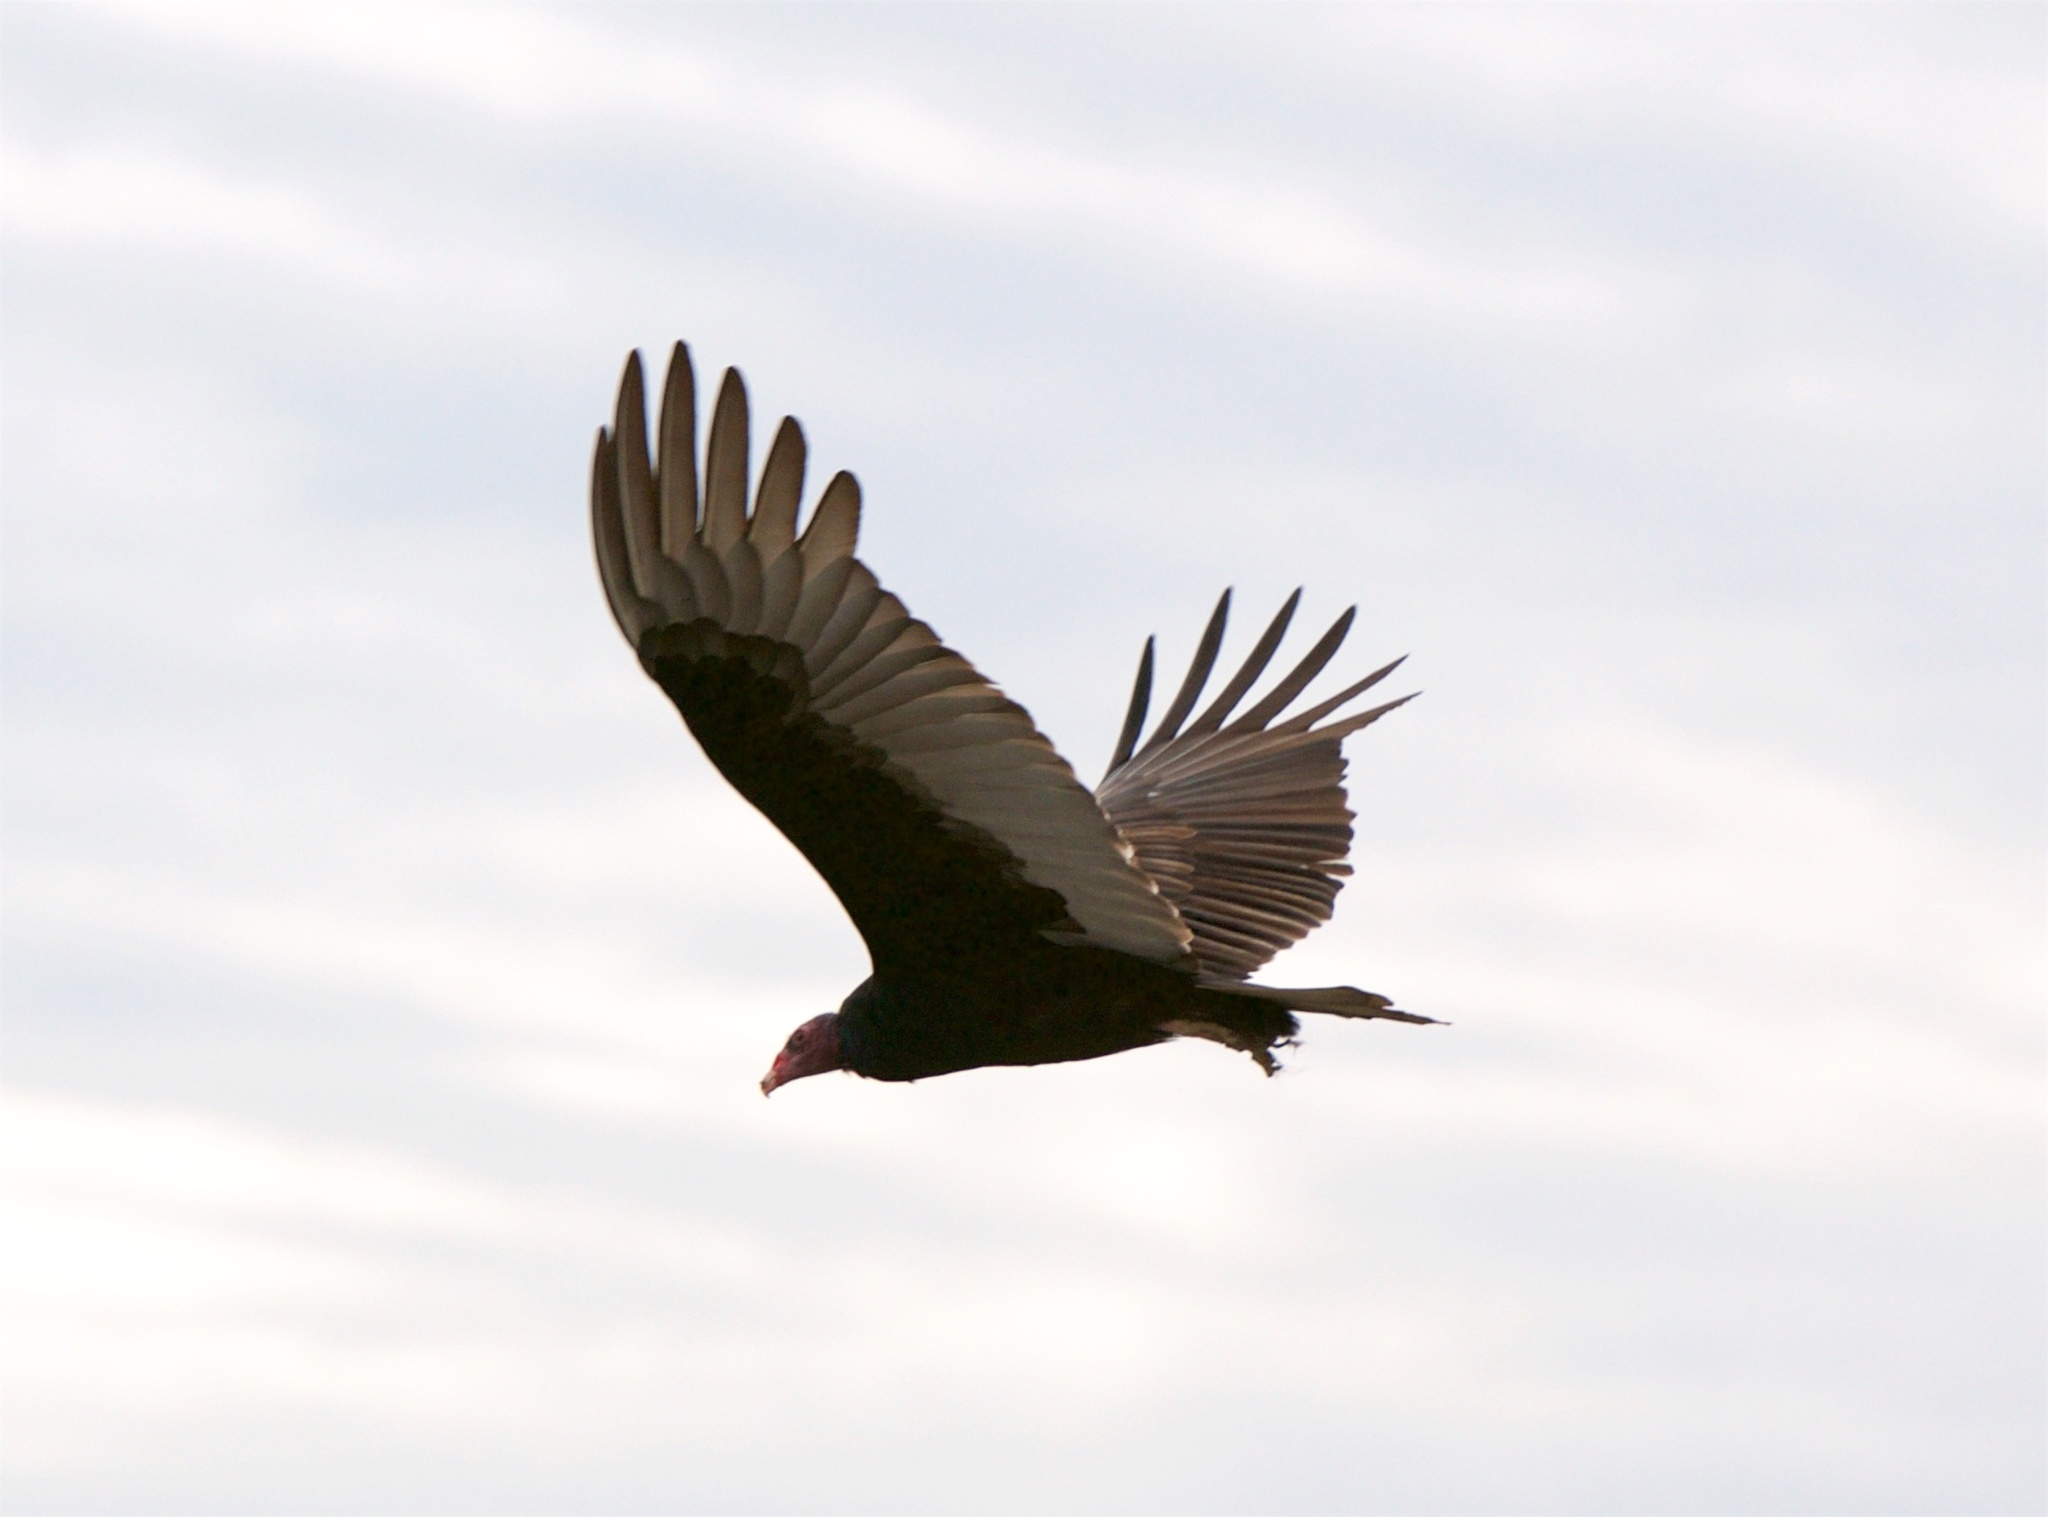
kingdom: Animalia
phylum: Chordata
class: Aves
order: Accipitriformes
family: Cathartidae
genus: Cathartes
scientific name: Cathartes aura
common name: Turkey vulture
